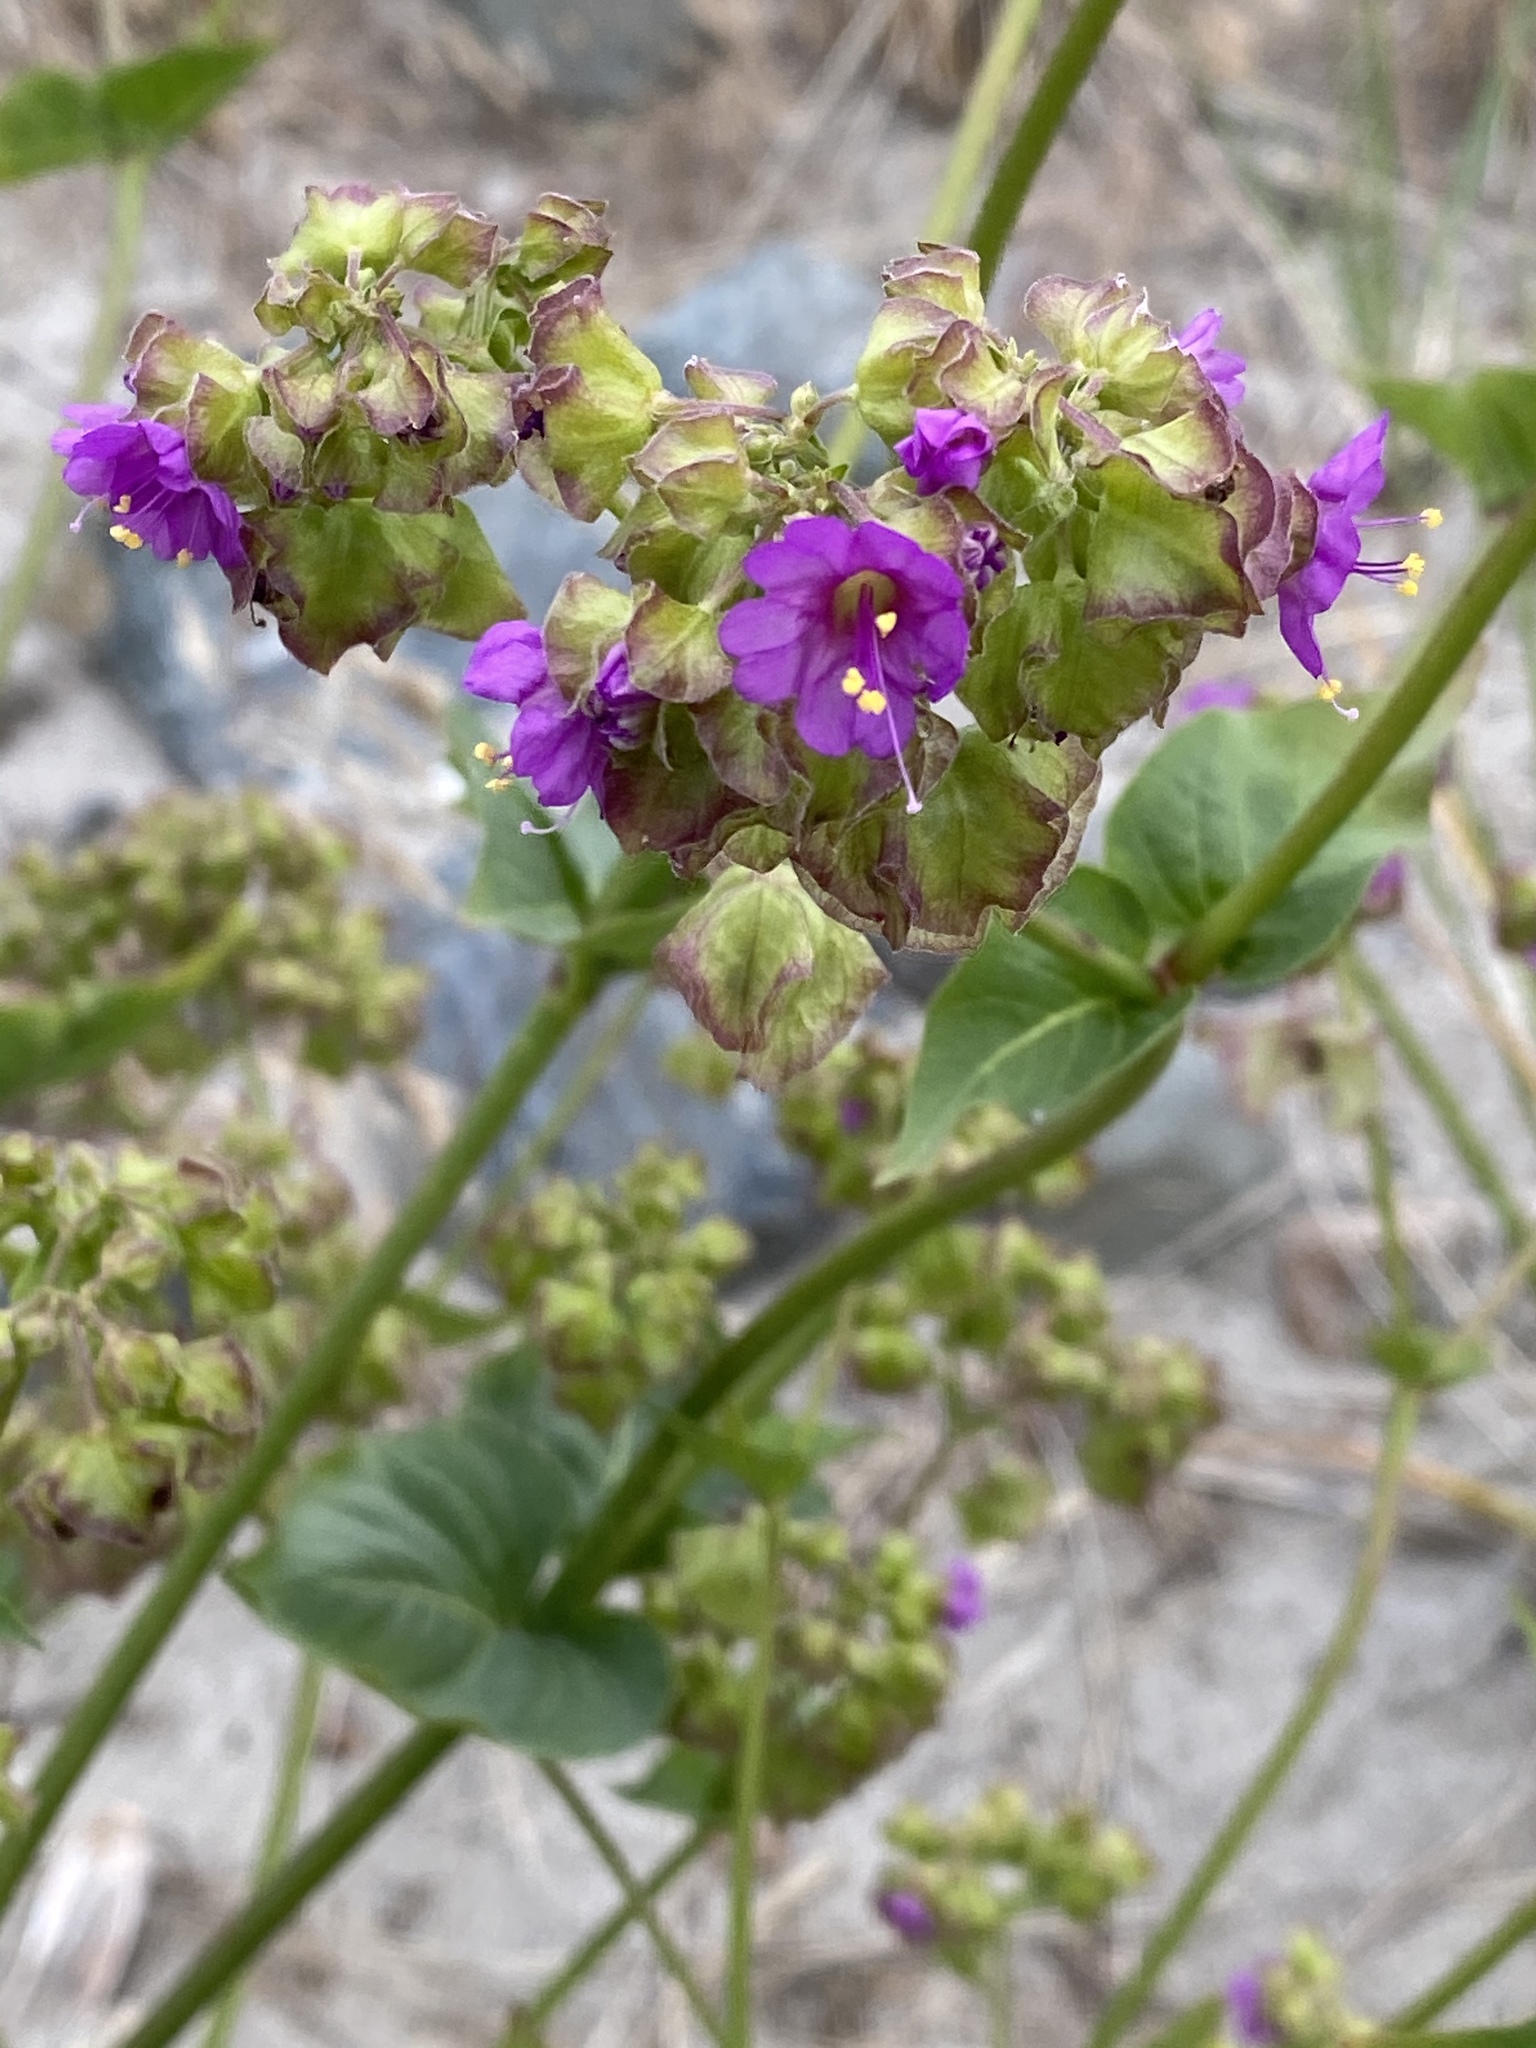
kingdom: Plantae
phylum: Tracheophyta
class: Magnoliopsida
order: Caryophyllales
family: Nyctaginaceae
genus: Mirabilis
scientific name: Mirabilis nyctaginea
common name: Umbrella wort
